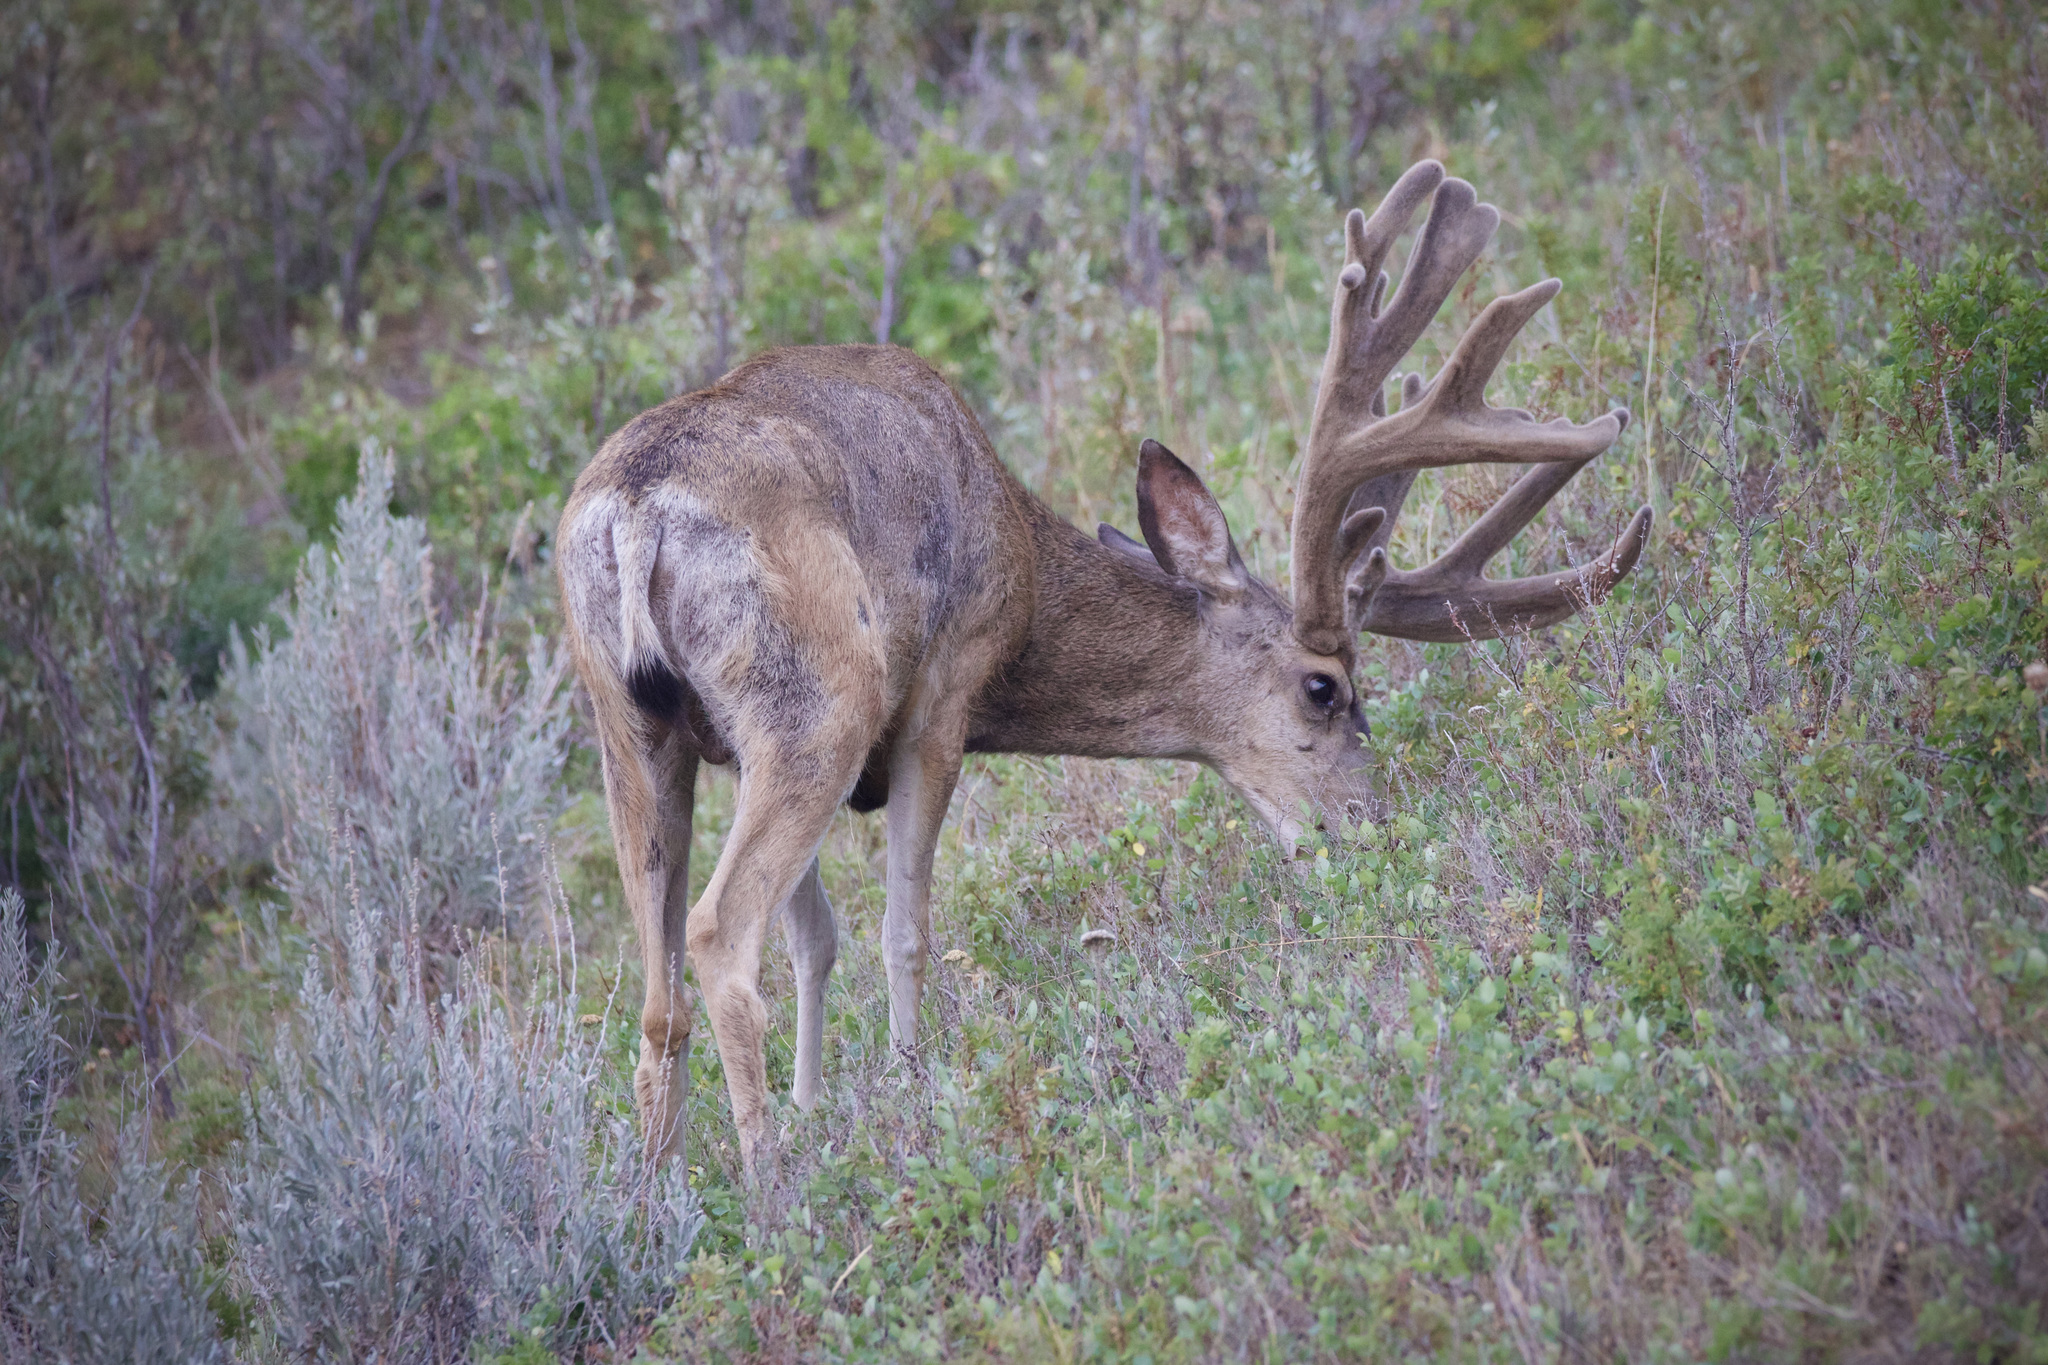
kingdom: Animalia
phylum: Chordata
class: Mammalia
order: Artiodactyla
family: Cervidae
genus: Odocoileus
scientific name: Odocoileus hemionus
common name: Mule deer
